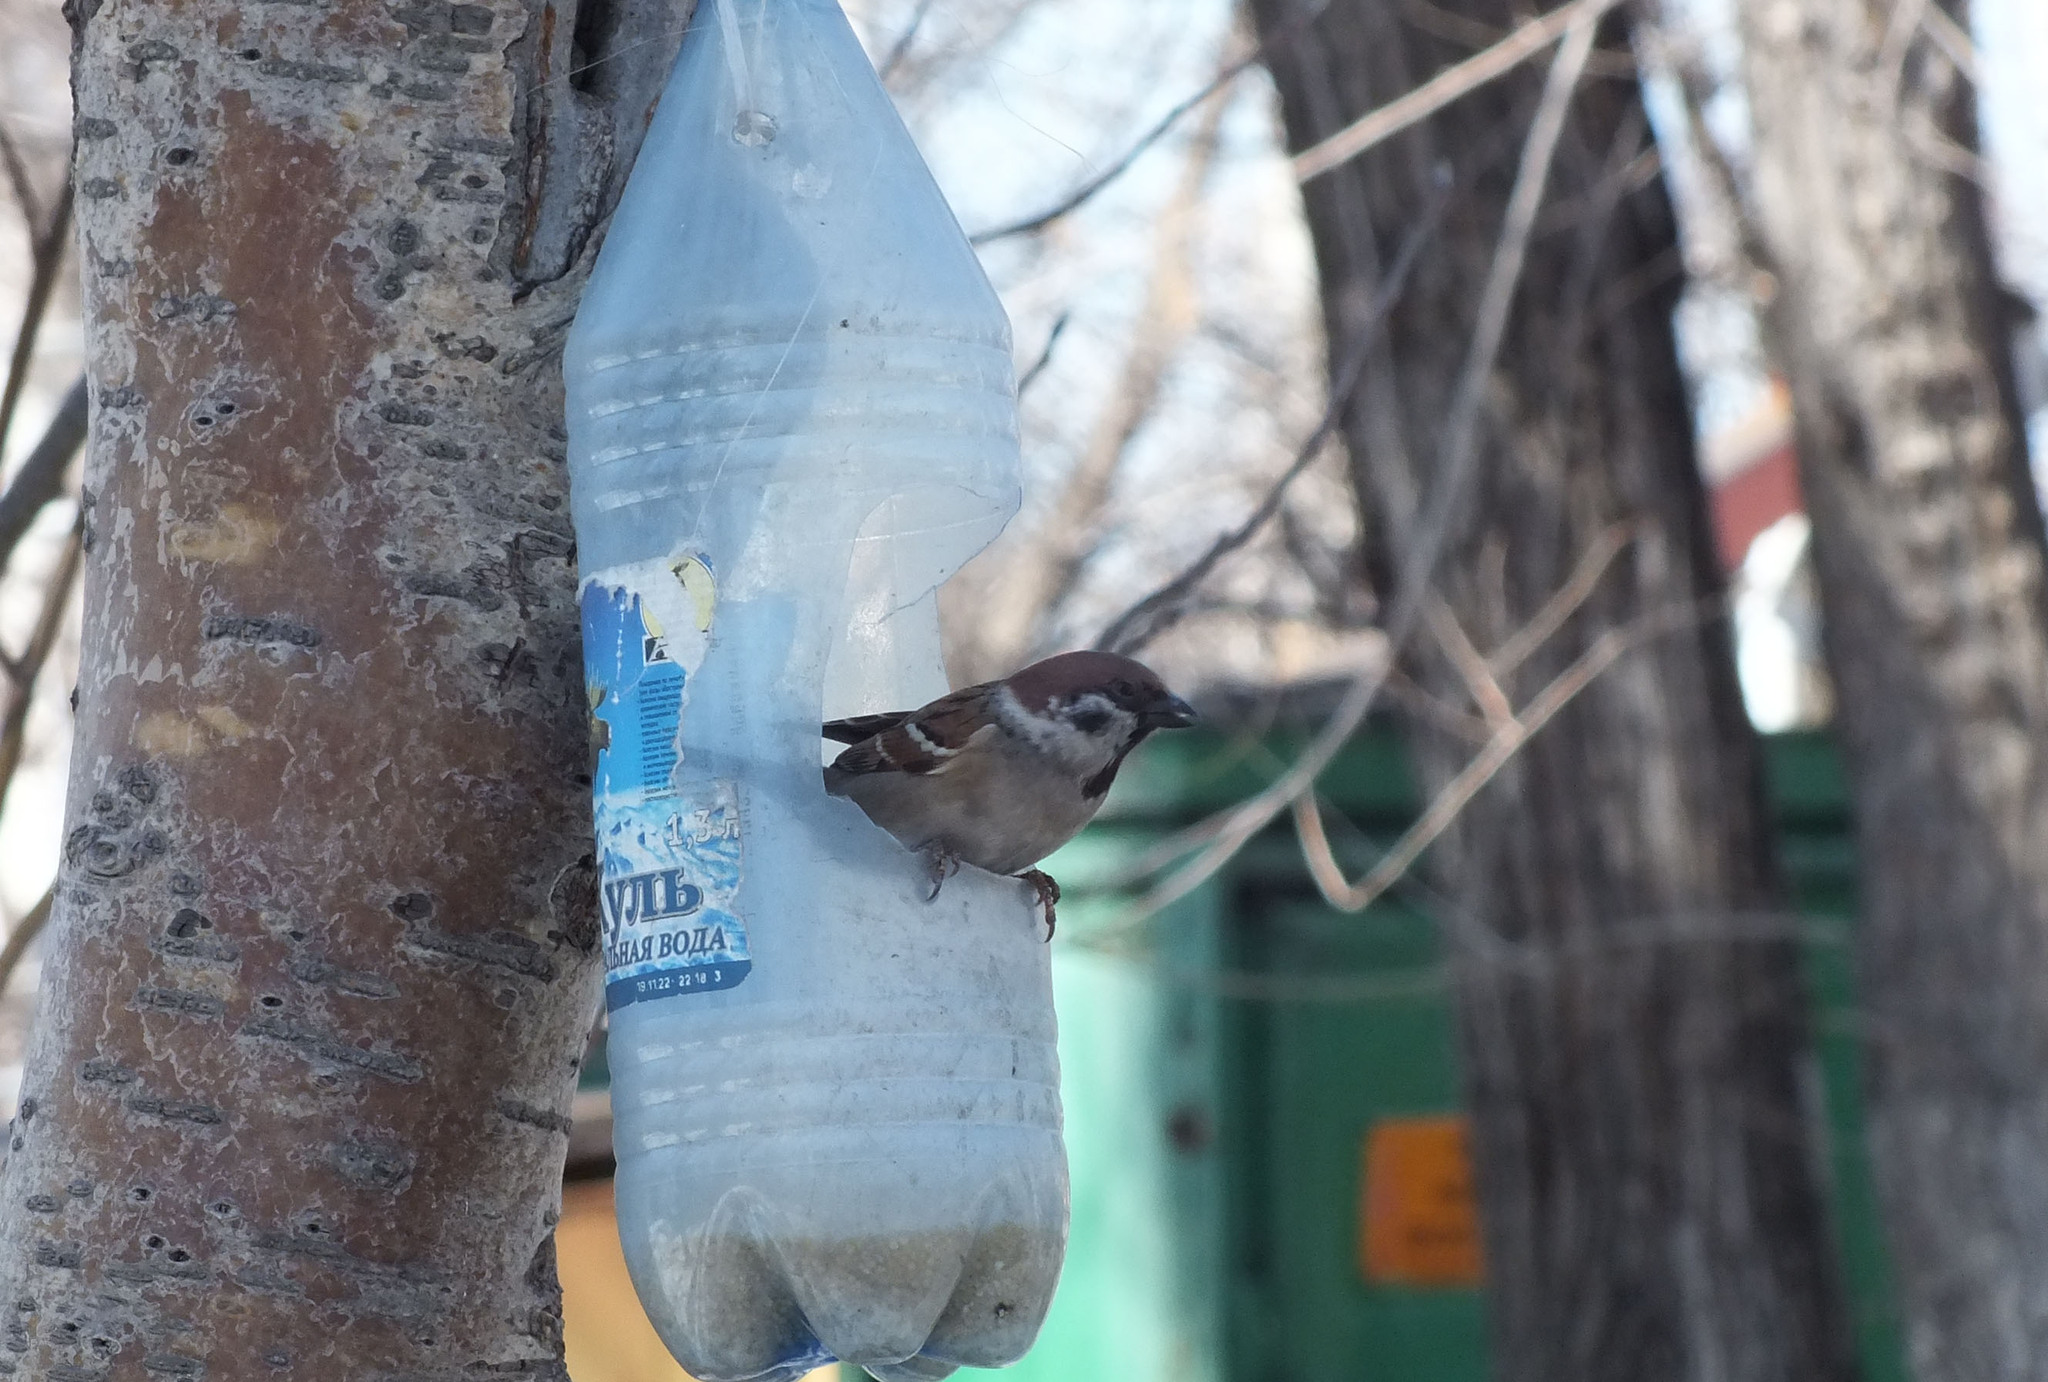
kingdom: Animalia
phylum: Chordata
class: Aves
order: Passeriformes
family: Passeridae
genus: Passer
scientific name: Passer montanus
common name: Eurasian tree sparrow
